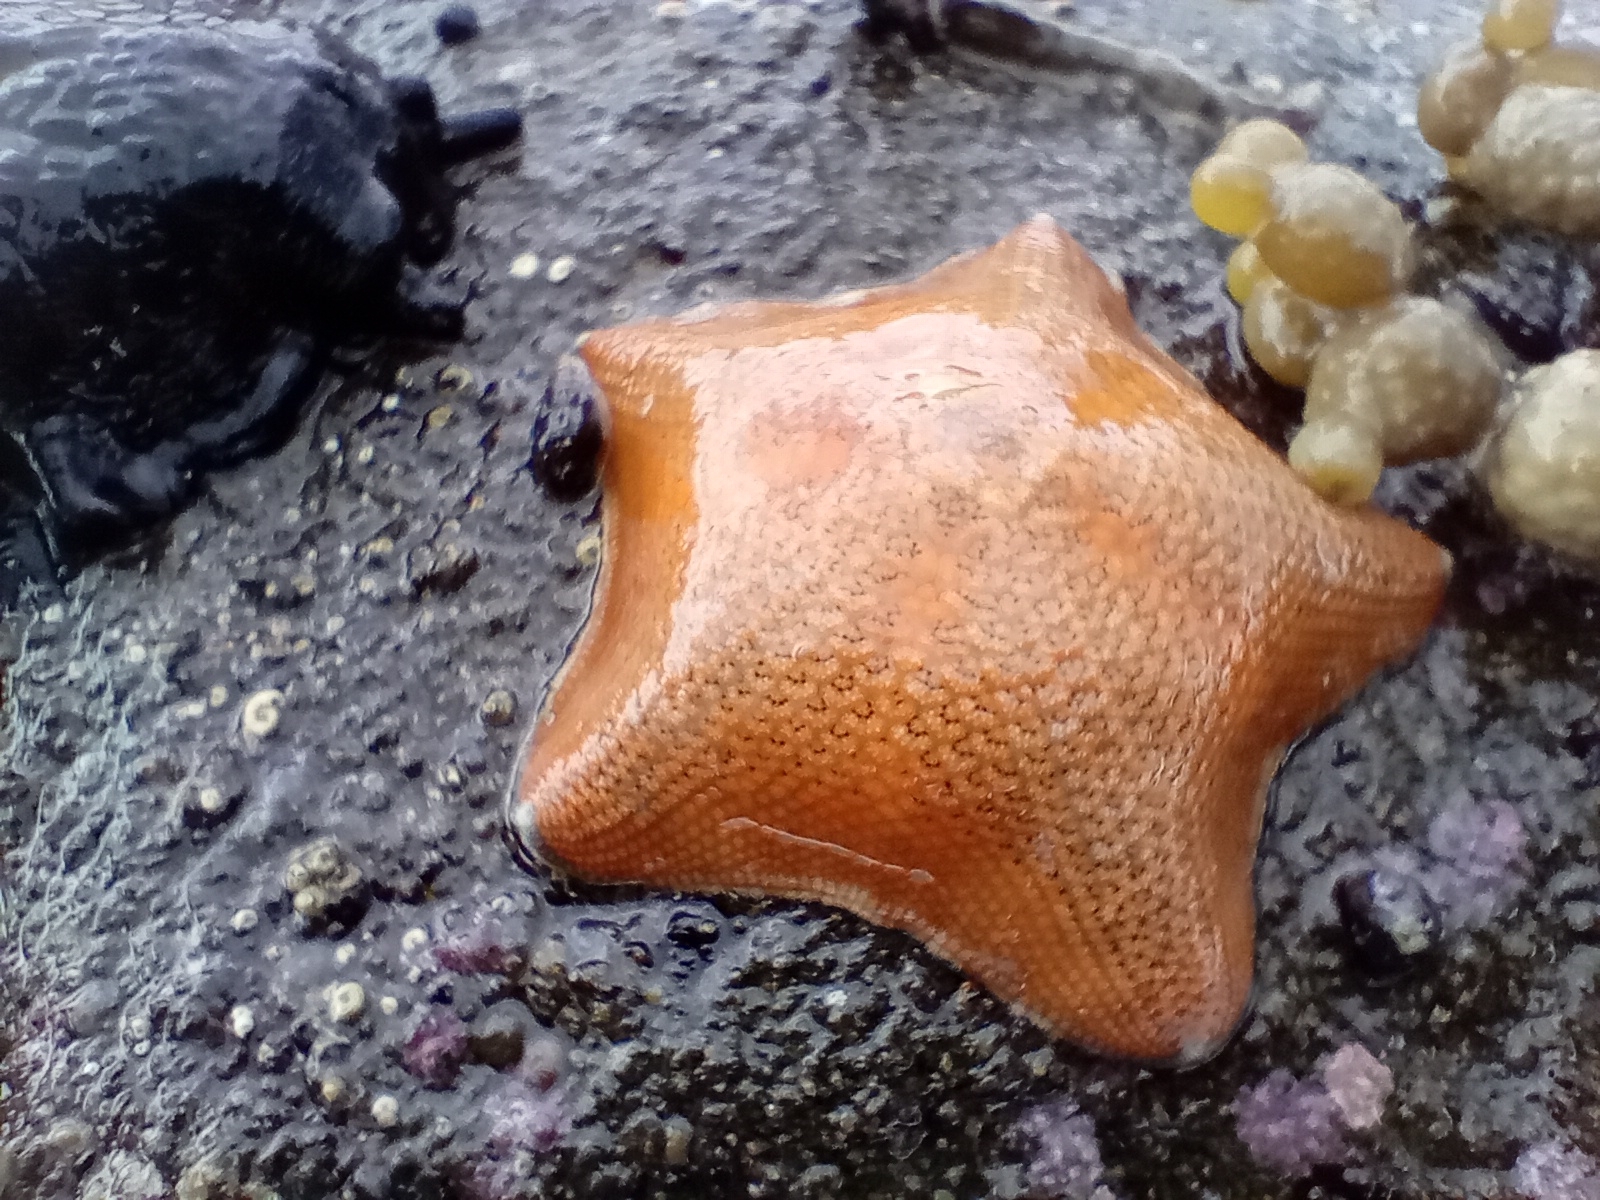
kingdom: Animalia
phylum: Echinodermata
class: Asteroidea
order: Valvatida
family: Asterinidae
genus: Patiriella
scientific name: Patiriella regularis
